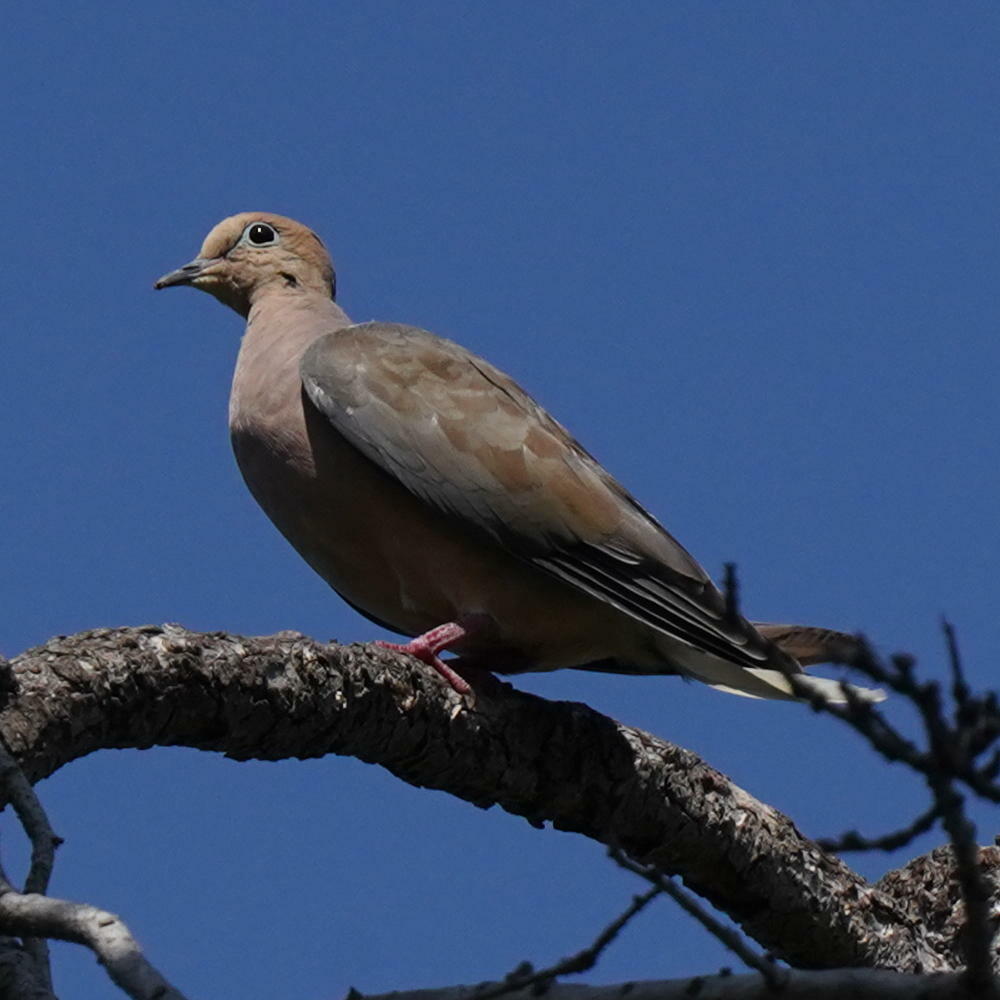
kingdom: Animalia
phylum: Chordata
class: Aves
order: Columbiformes
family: Columbidae
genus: Zenaida
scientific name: Zenaida macroura
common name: Mourning dove
